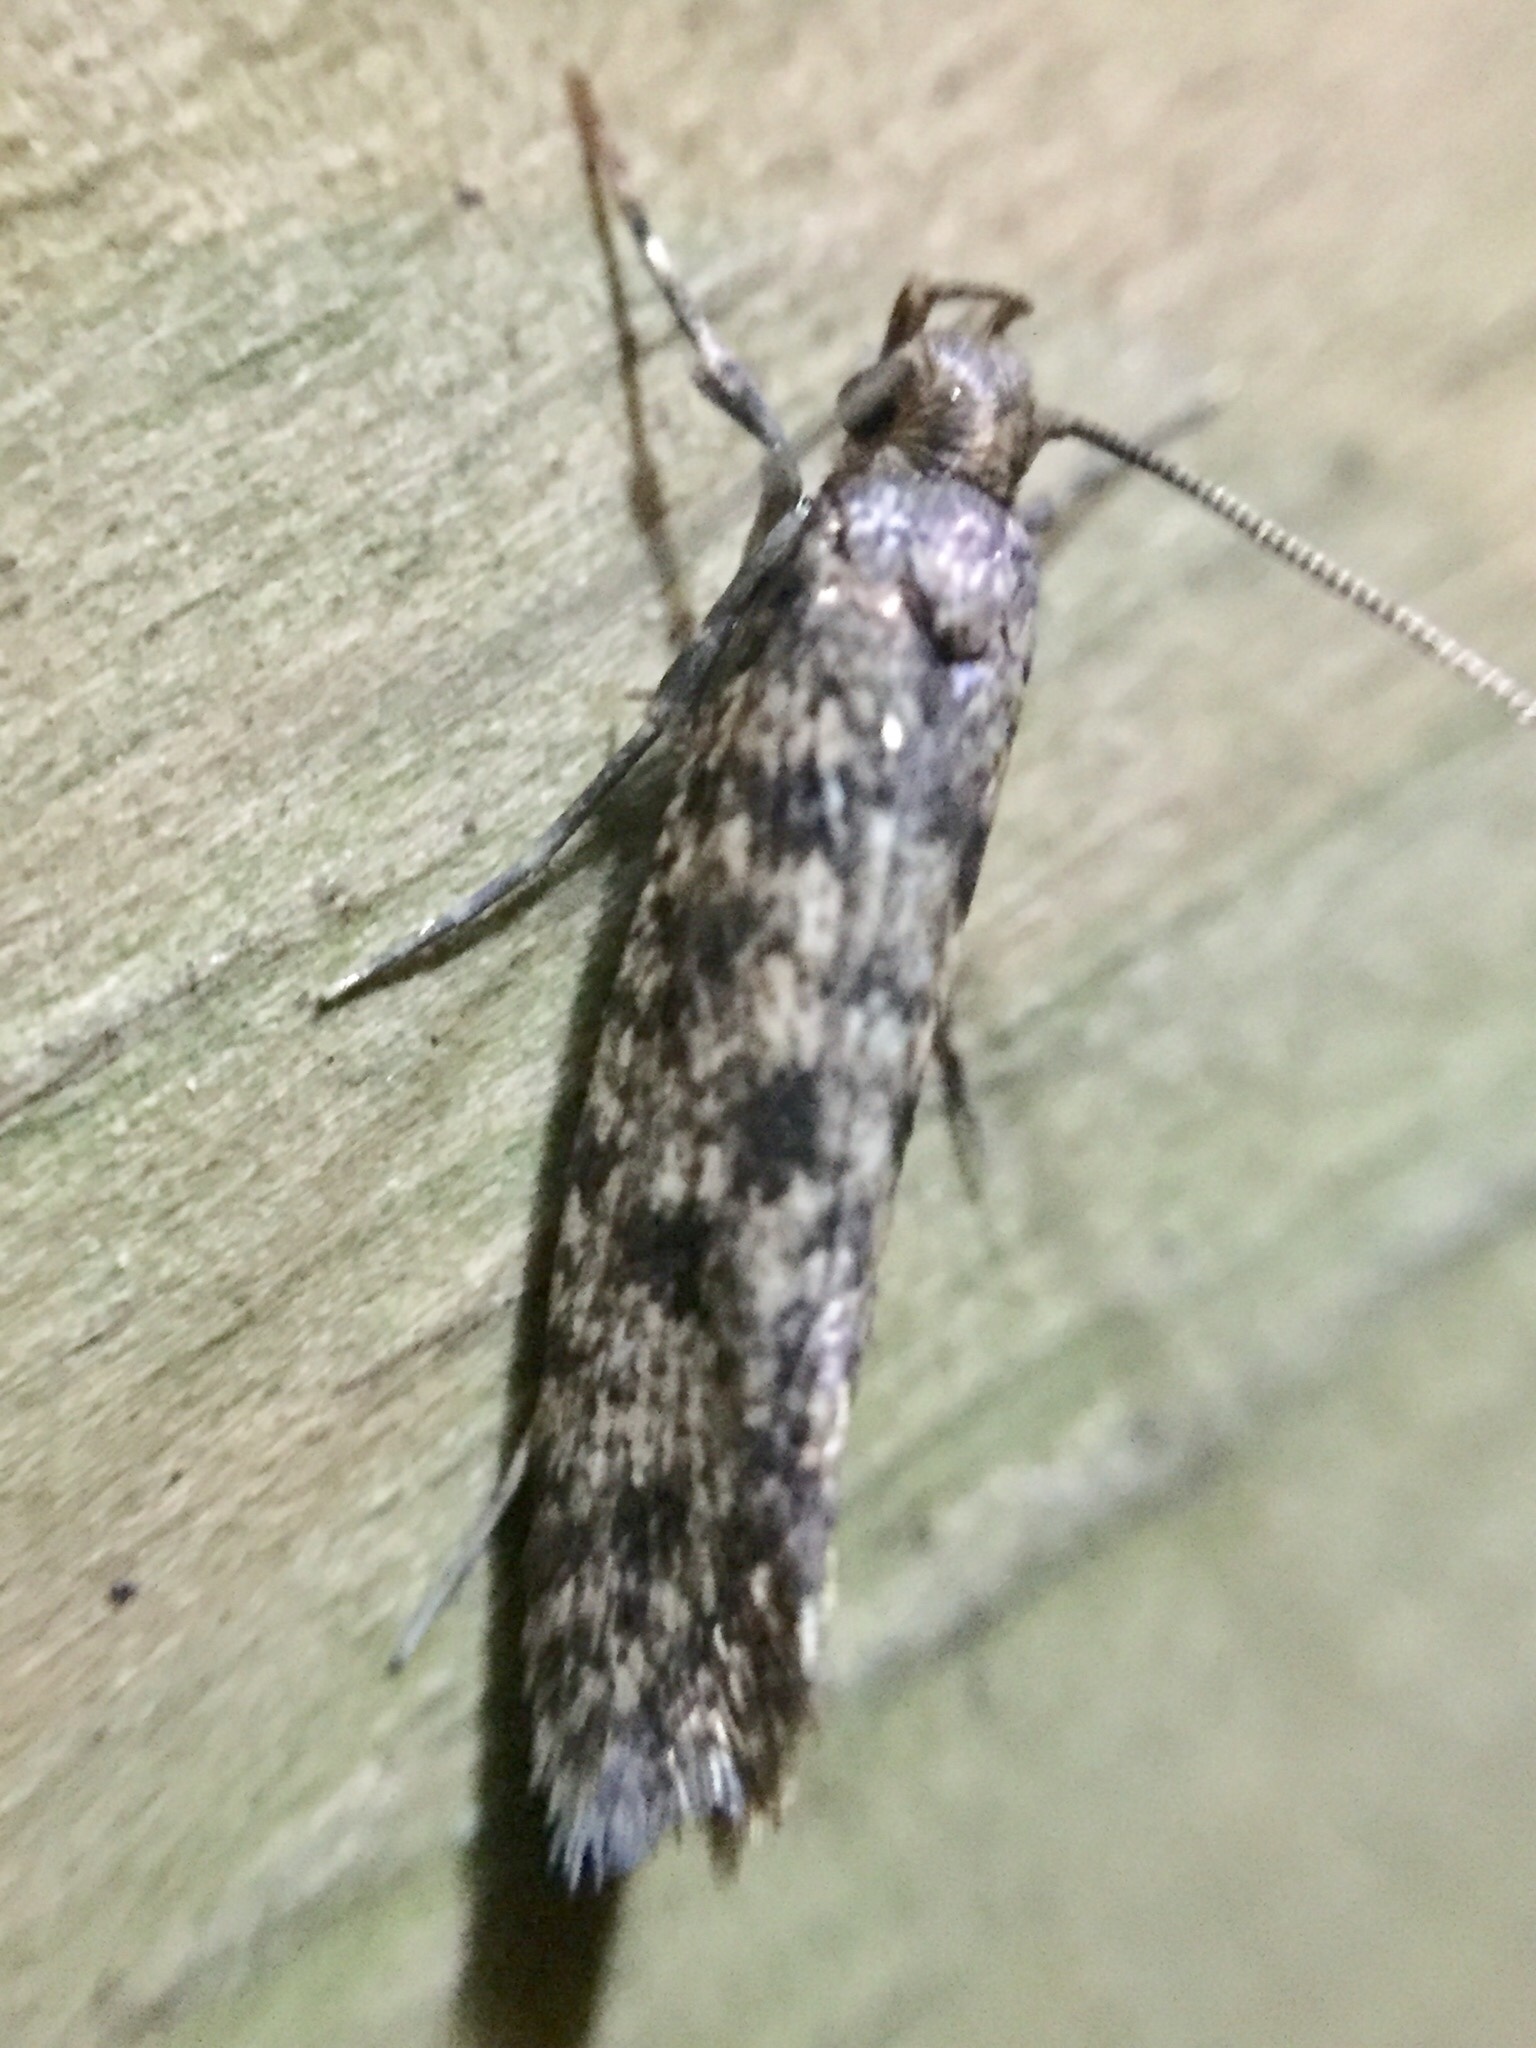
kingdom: Animalia
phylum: Arthropoda
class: Insecta
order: Lepidoptera
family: Tineidae
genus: Lindera
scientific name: Lindera tessellatella
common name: Moth
